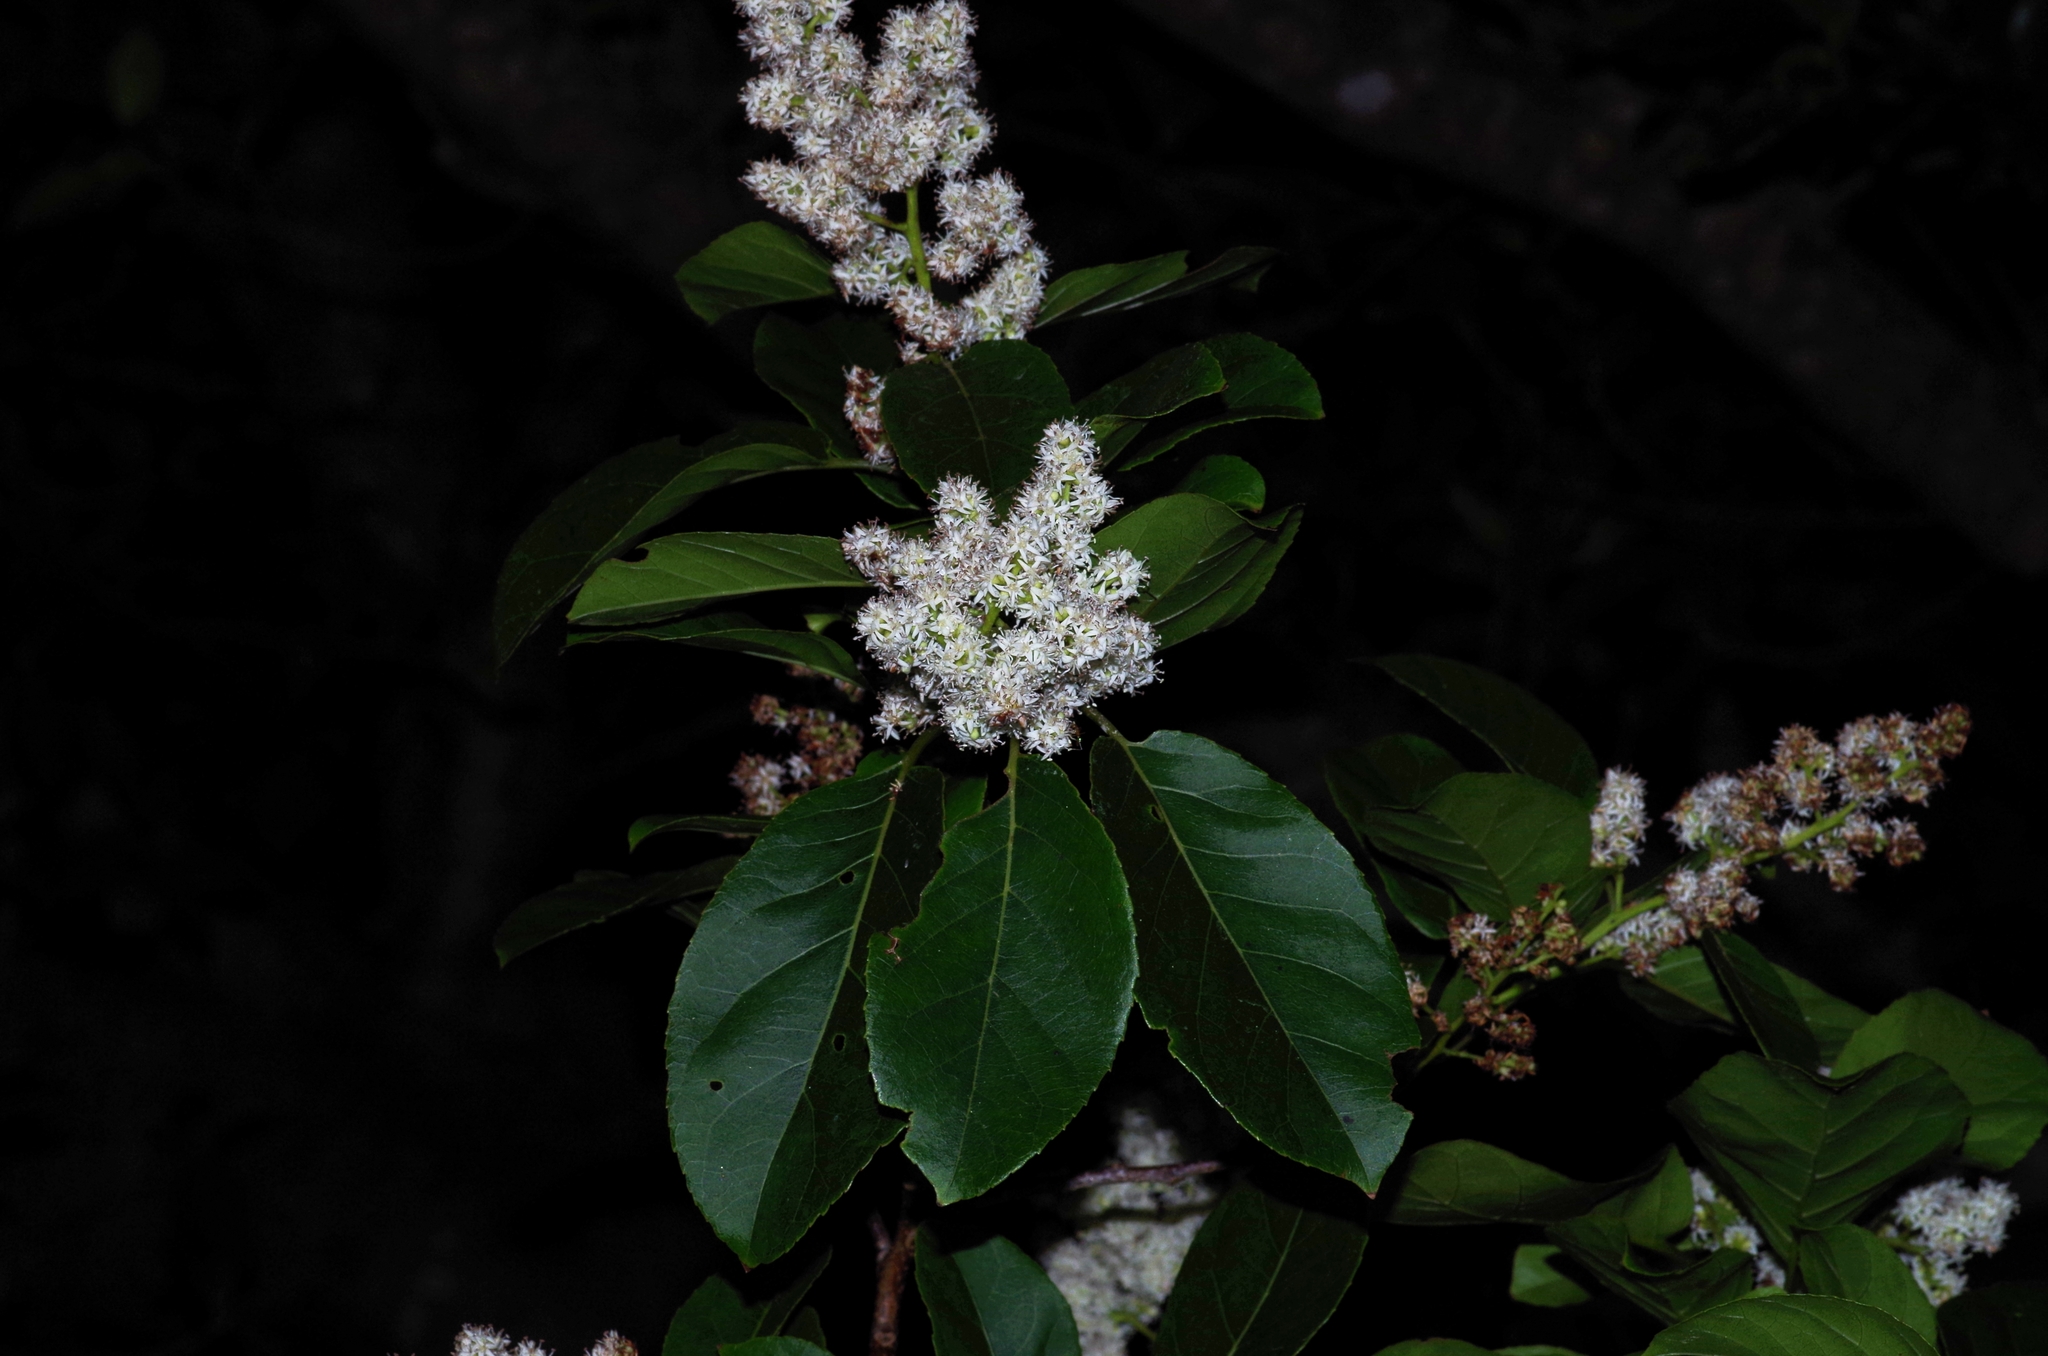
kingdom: Plantae
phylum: Tracheophyta
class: Magnoliopsida
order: Boraginales
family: Ehretiaceae
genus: Ehretia
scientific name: Ehretia acuminata
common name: Kodo wood
